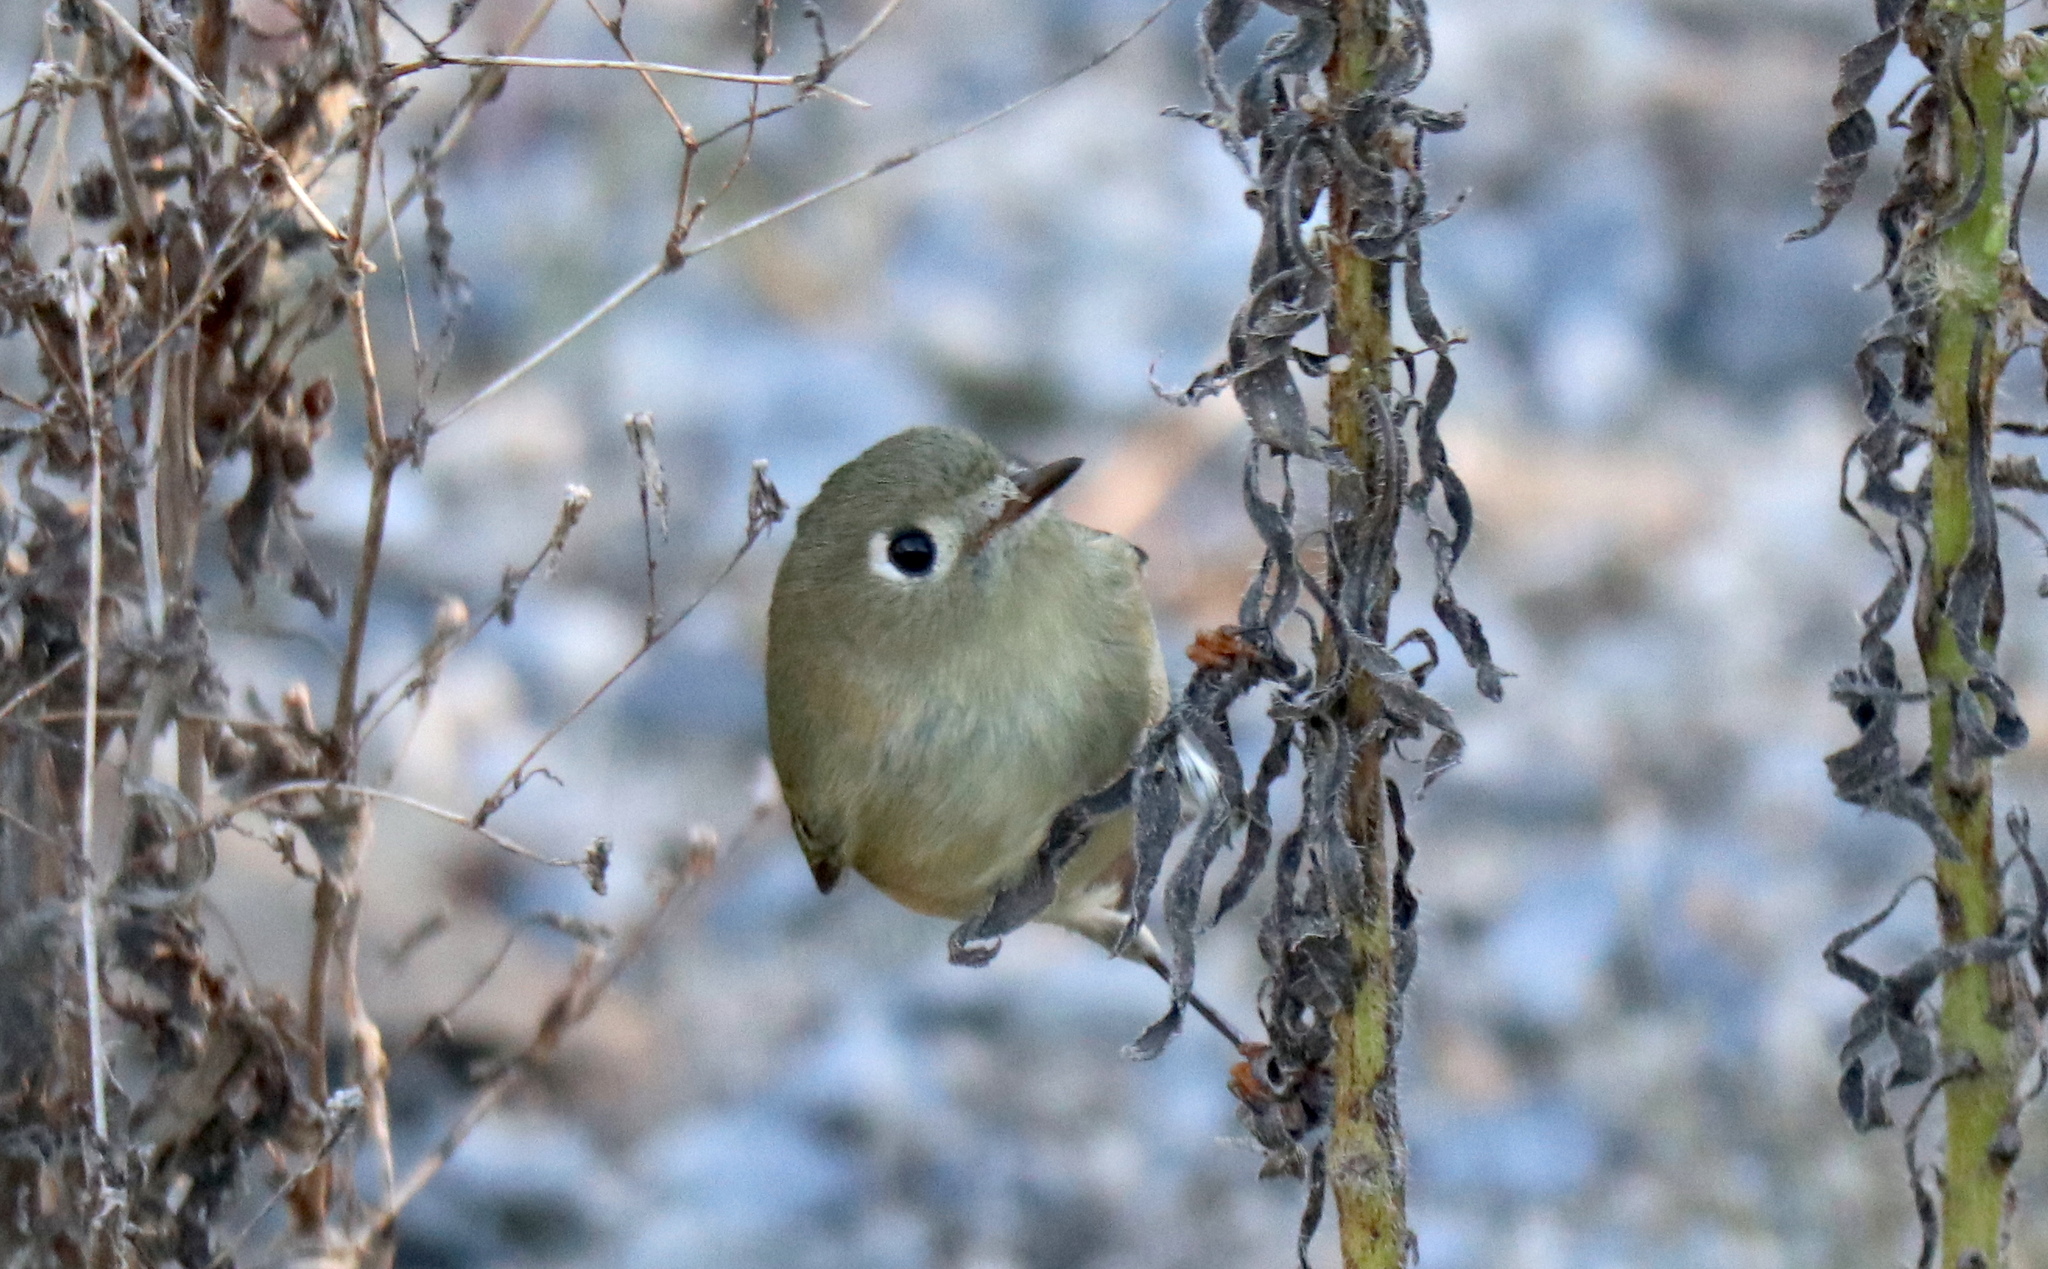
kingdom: Animalia
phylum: Chordata
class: Aves
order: Passeriformes
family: Regulidae
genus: Regulus
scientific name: Regulus calendula
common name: Ruby-crowned kinglet
